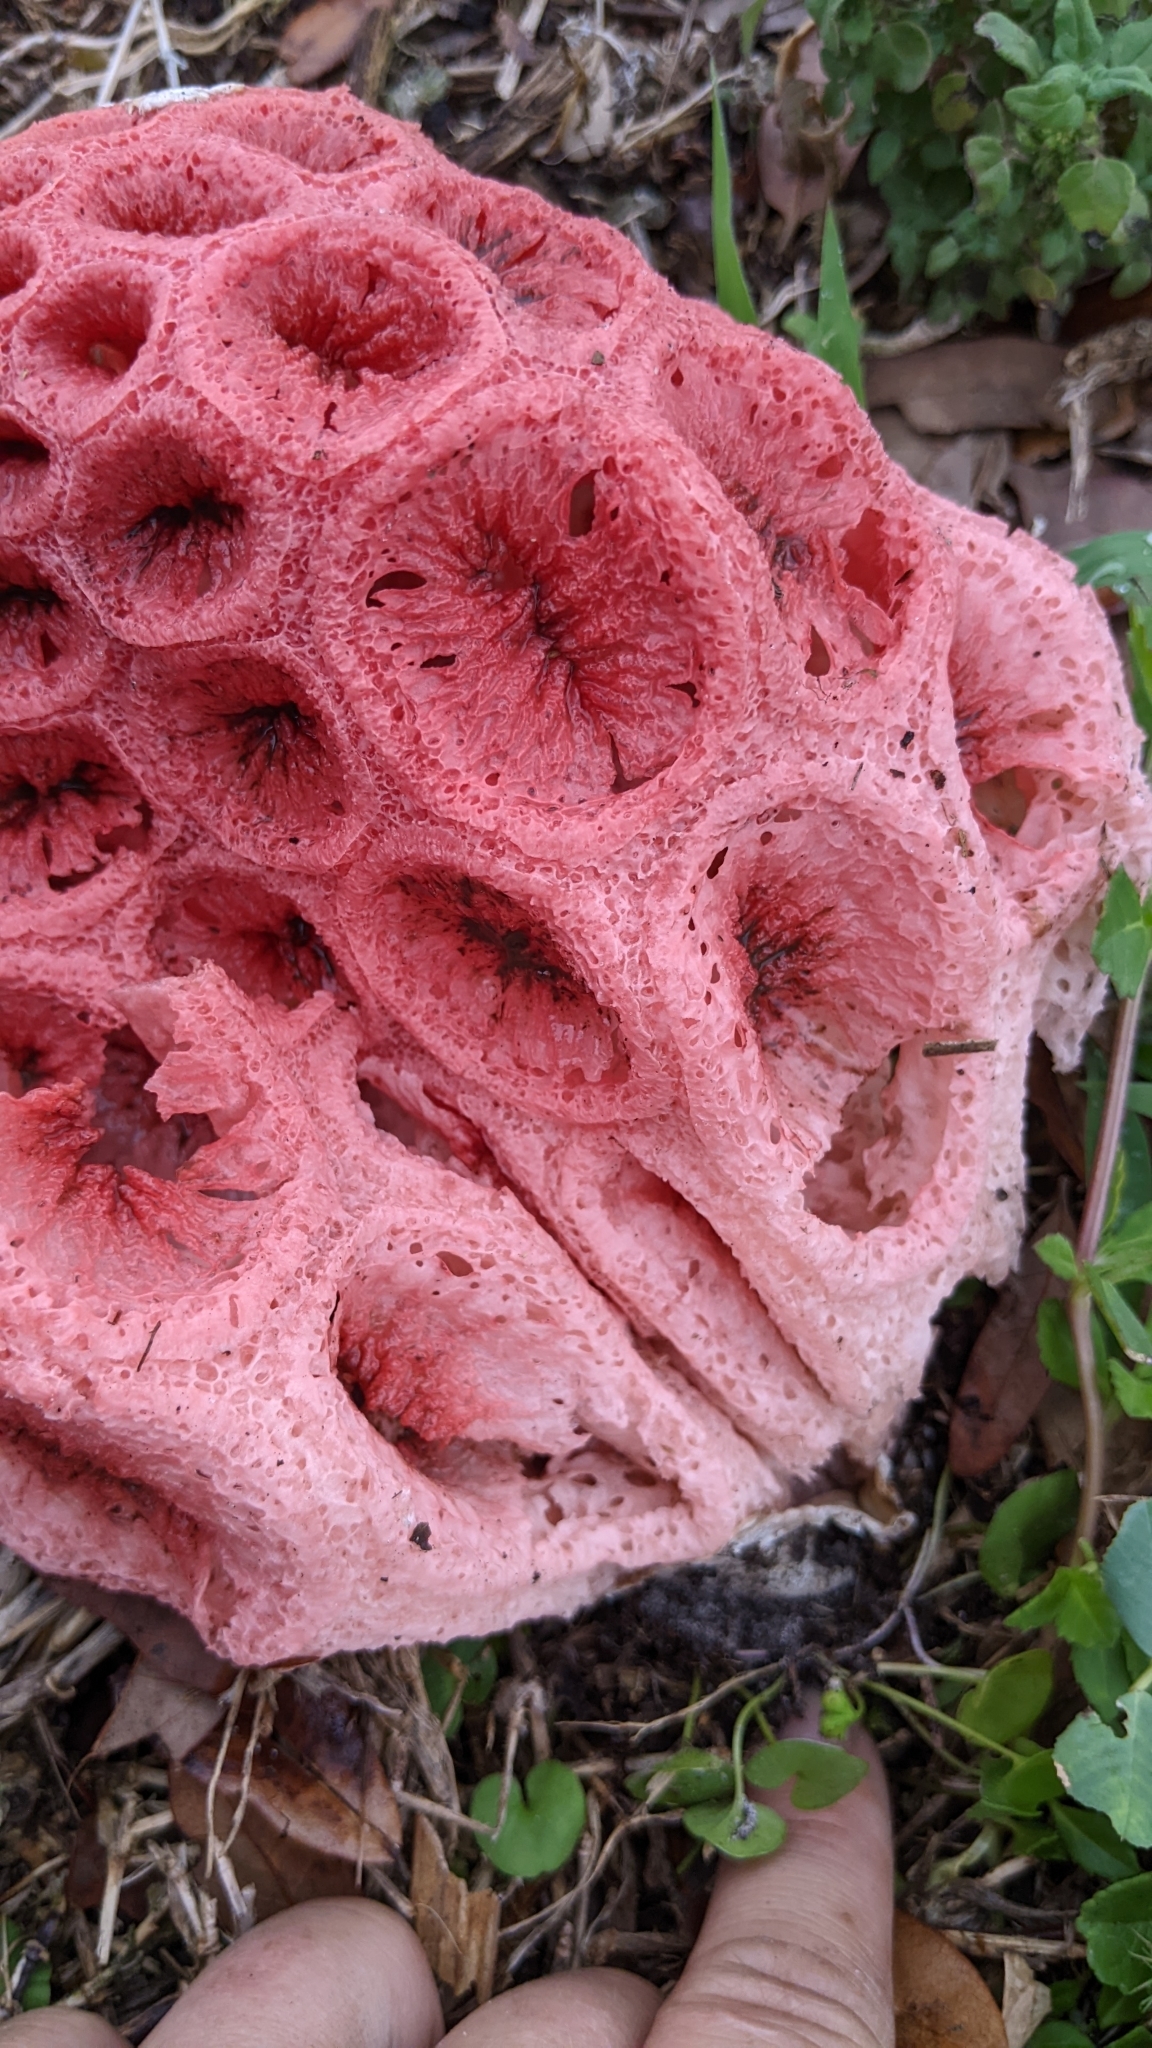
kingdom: Fungi
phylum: Basidiomycota
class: Agaricomycetes
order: Phallales
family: Phallaceae
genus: Clathrus
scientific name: Clathrus crispatus
